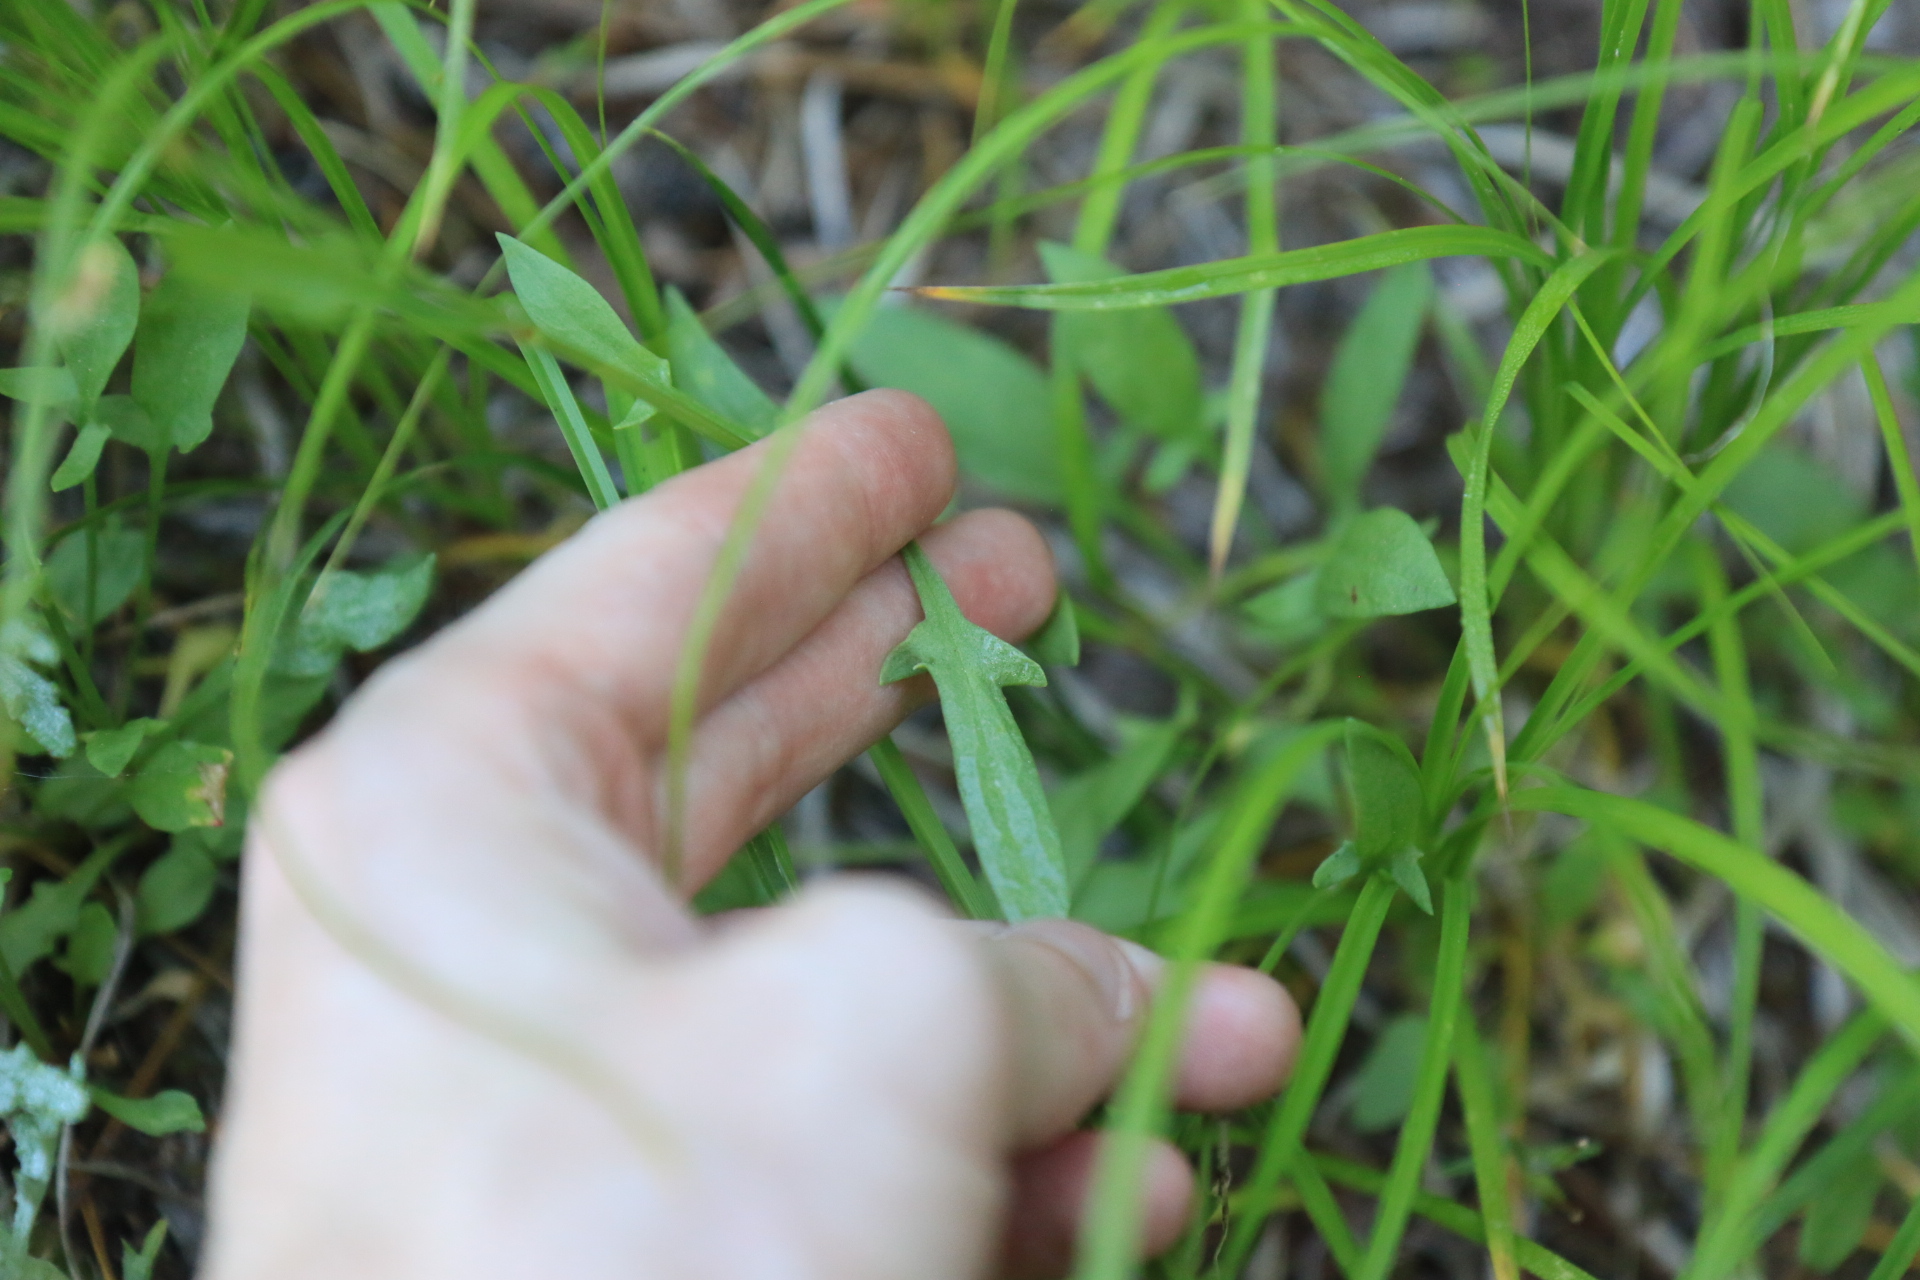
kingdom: Plantae
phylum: Tracheophyta
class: Magnoliopsida
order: Caryophyllales
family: Polygonaceae
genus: Rumex
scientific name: Rumex acetosella
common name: Common sheep sorrel
